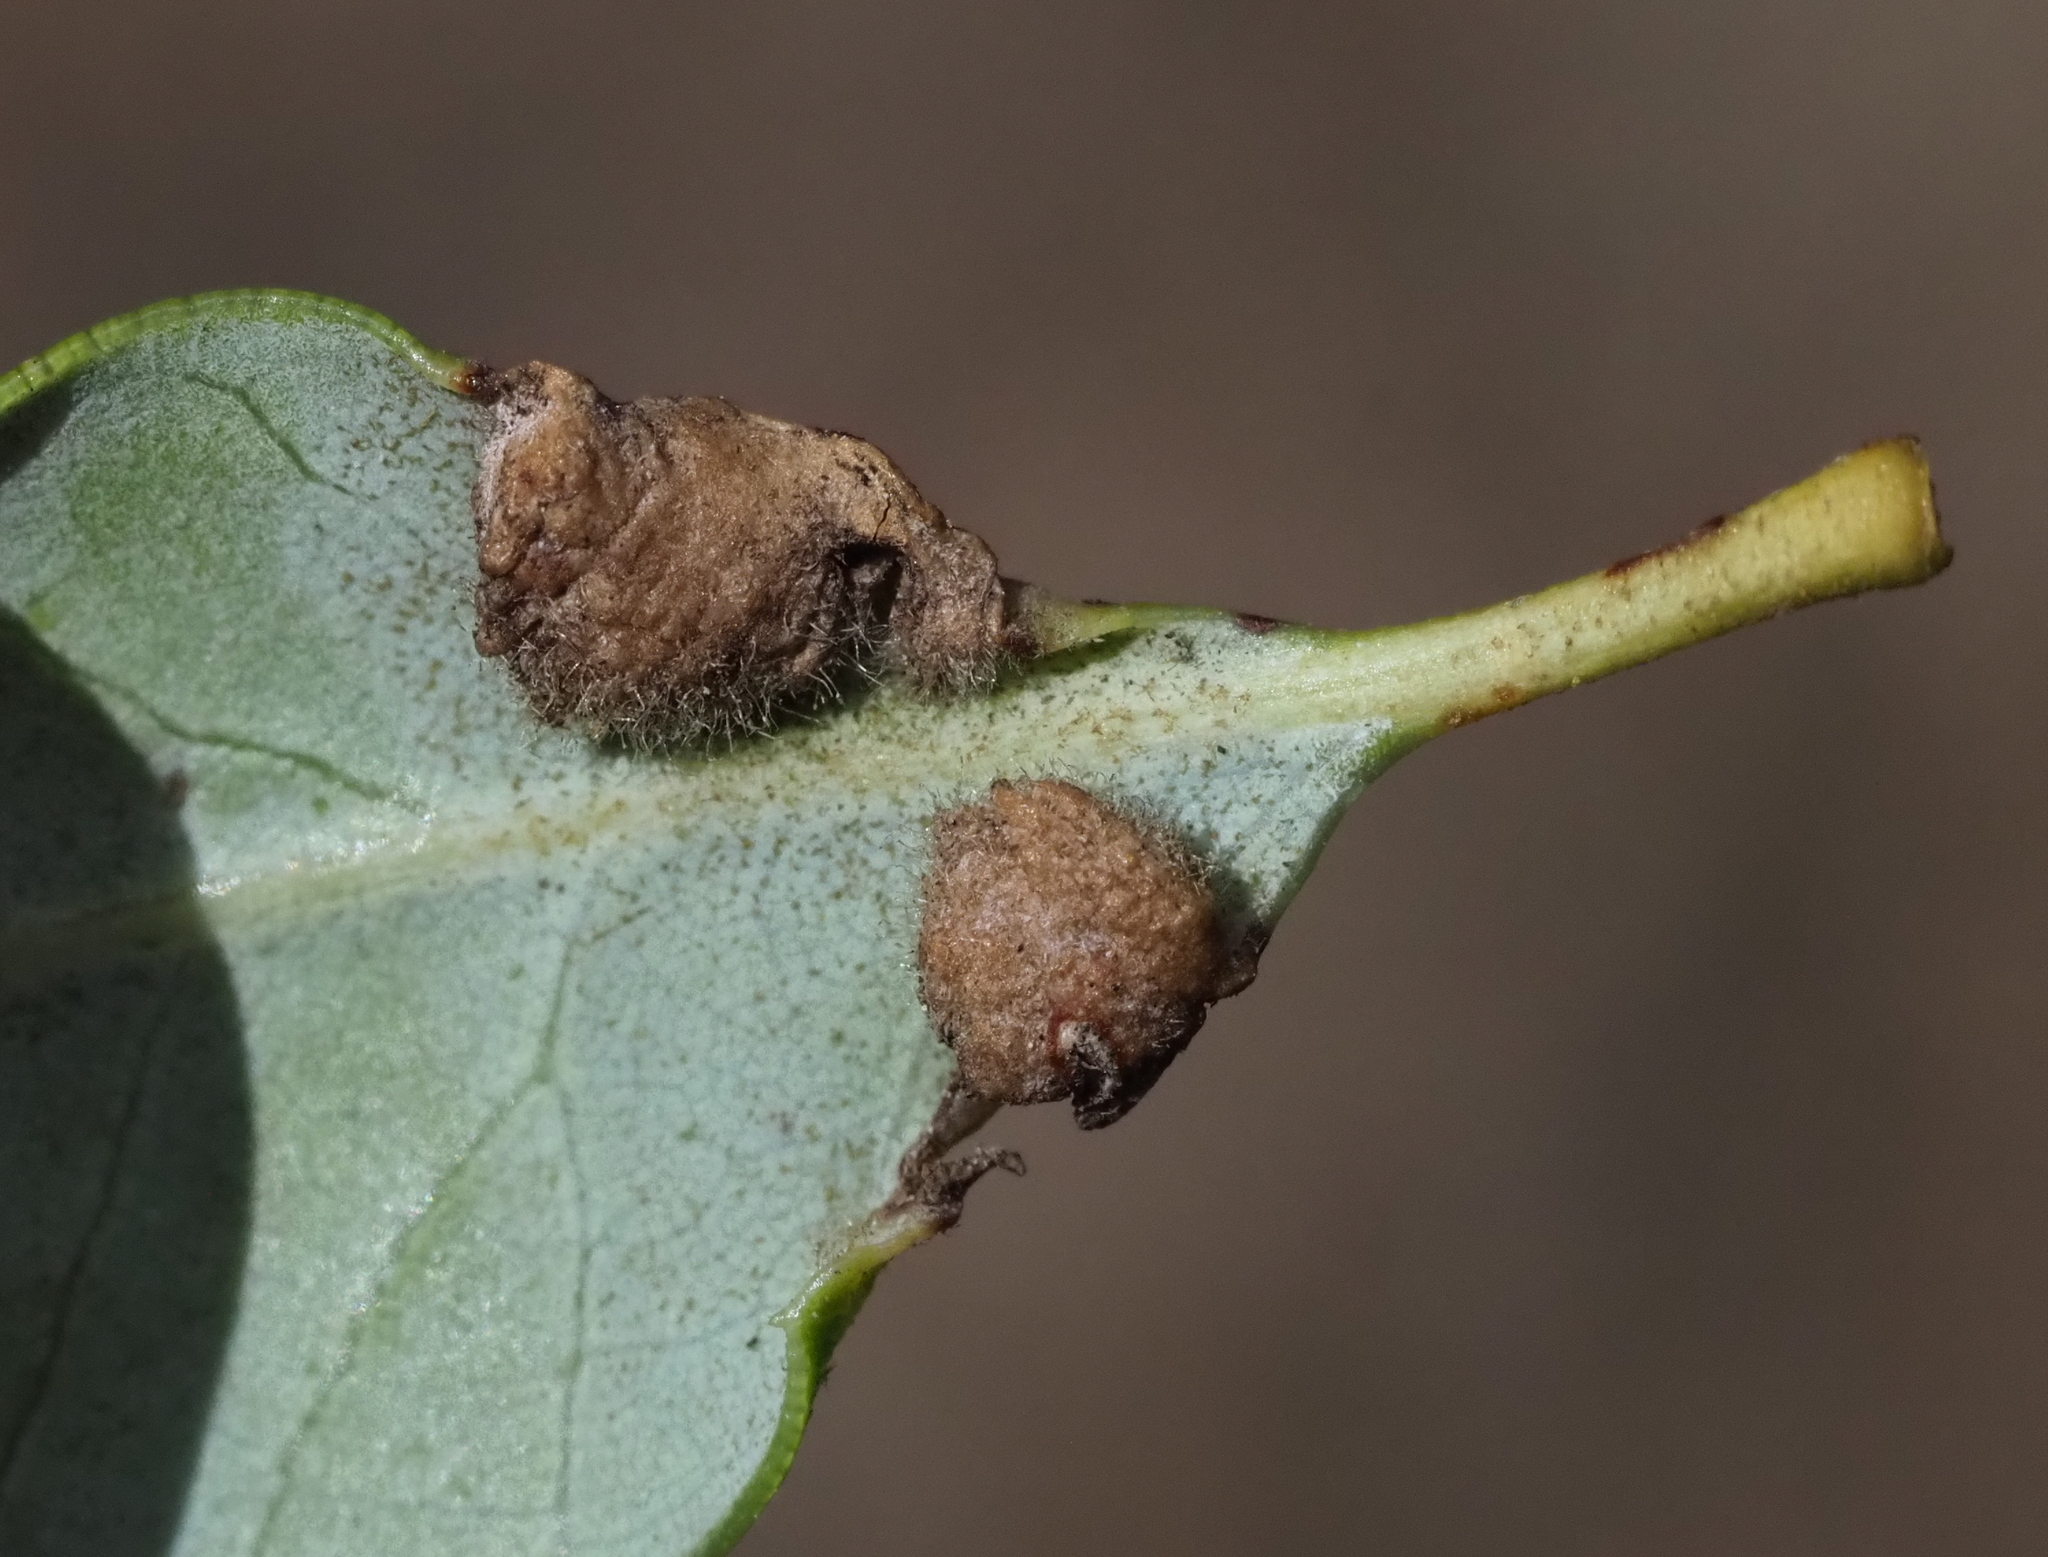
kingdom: Animalia
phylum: Arthropoda
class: Insecta
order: Diptera
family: Cecidomyiidae
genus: Dasineura
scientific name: Dasineura silvestrii
